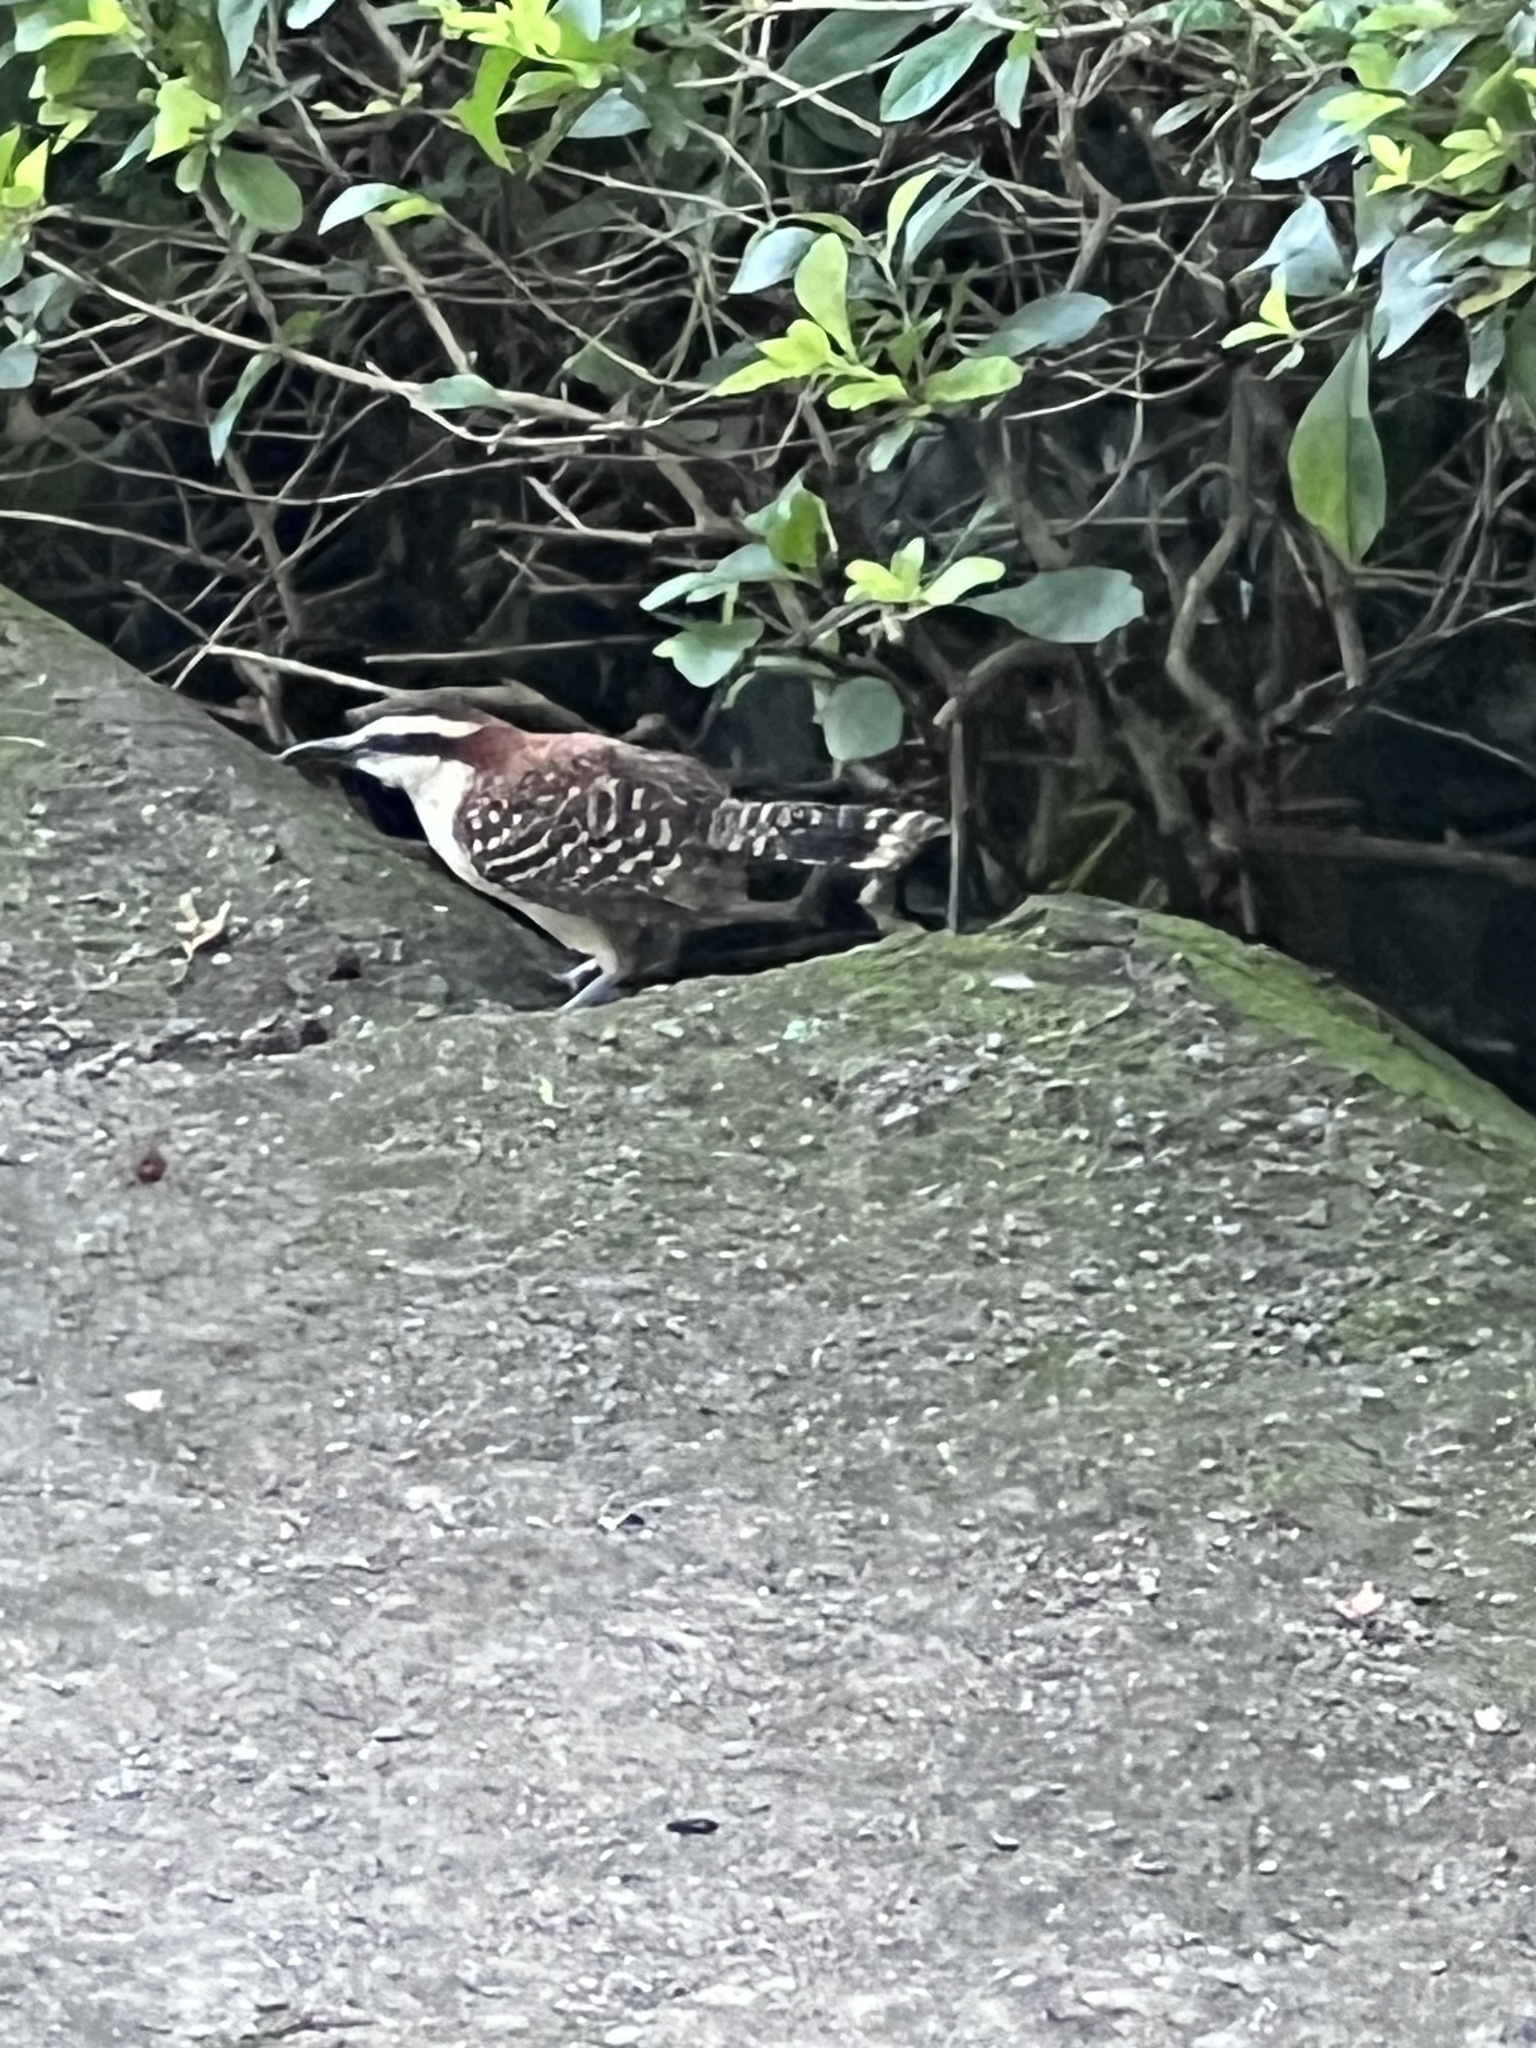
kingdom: Animalia
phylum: Chordata
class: Aves
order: Passeriformes
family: Troglodytidae
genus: Campylorhynchus
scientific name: Campylorhynchus rufinucha
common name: Rufous-naped wren
